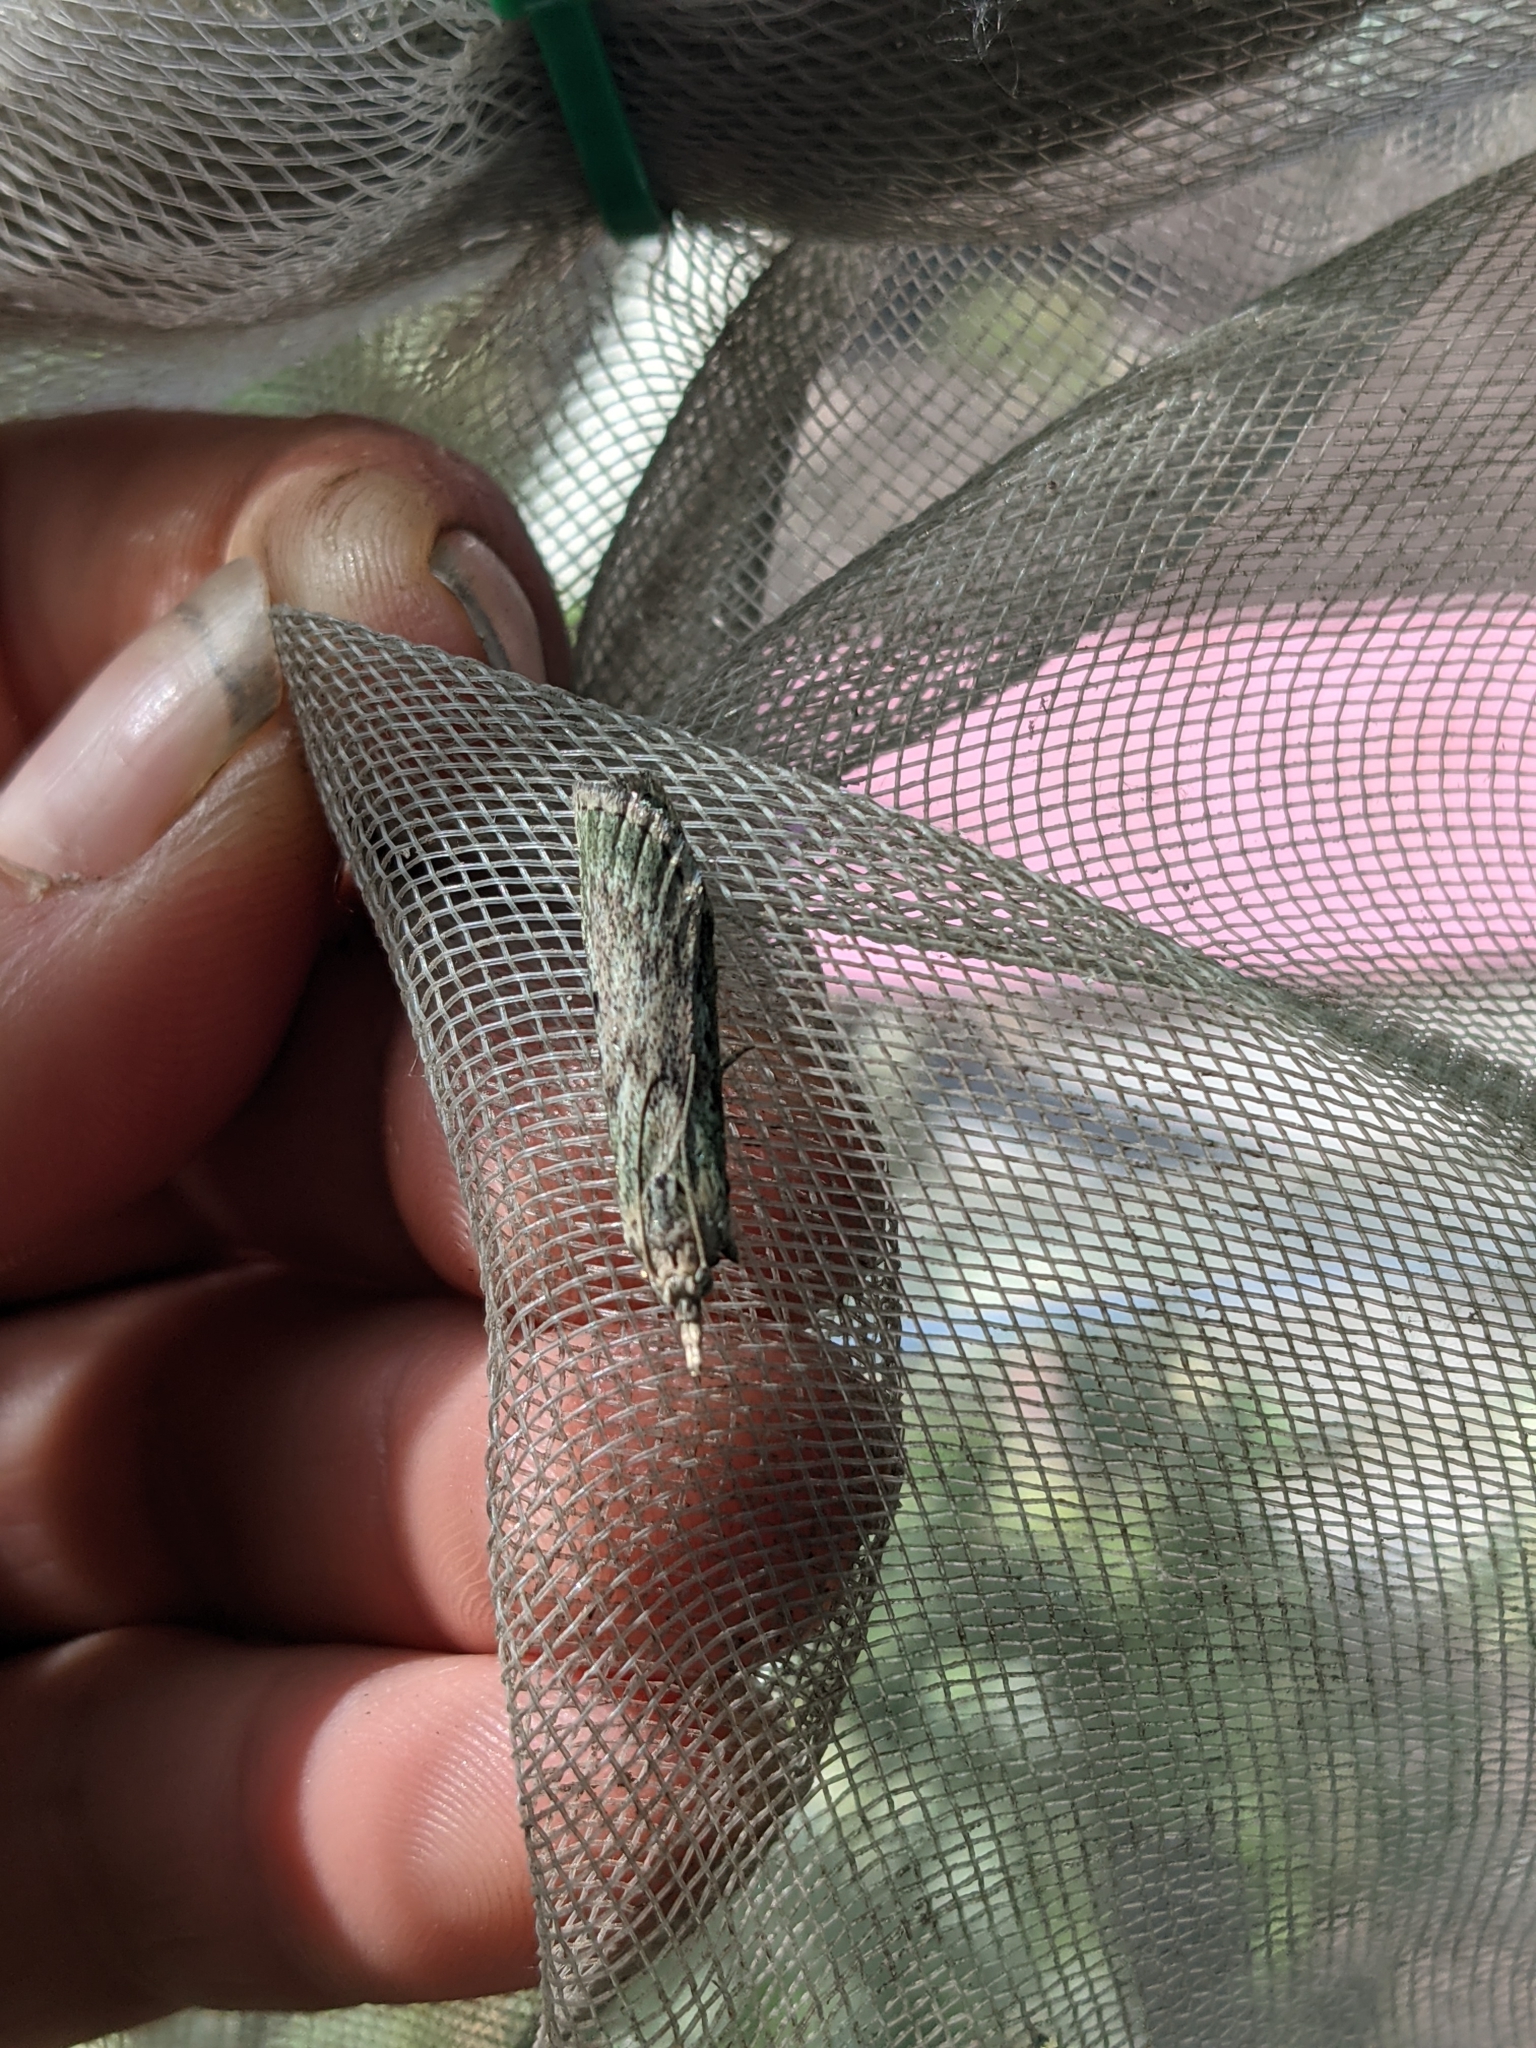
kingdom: Animalia
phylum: Arthropoda
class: Insecta
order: Lepidoptera
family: Pyralidae
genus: Aphomia
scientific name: Aphomia sociella
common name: Bee moth
